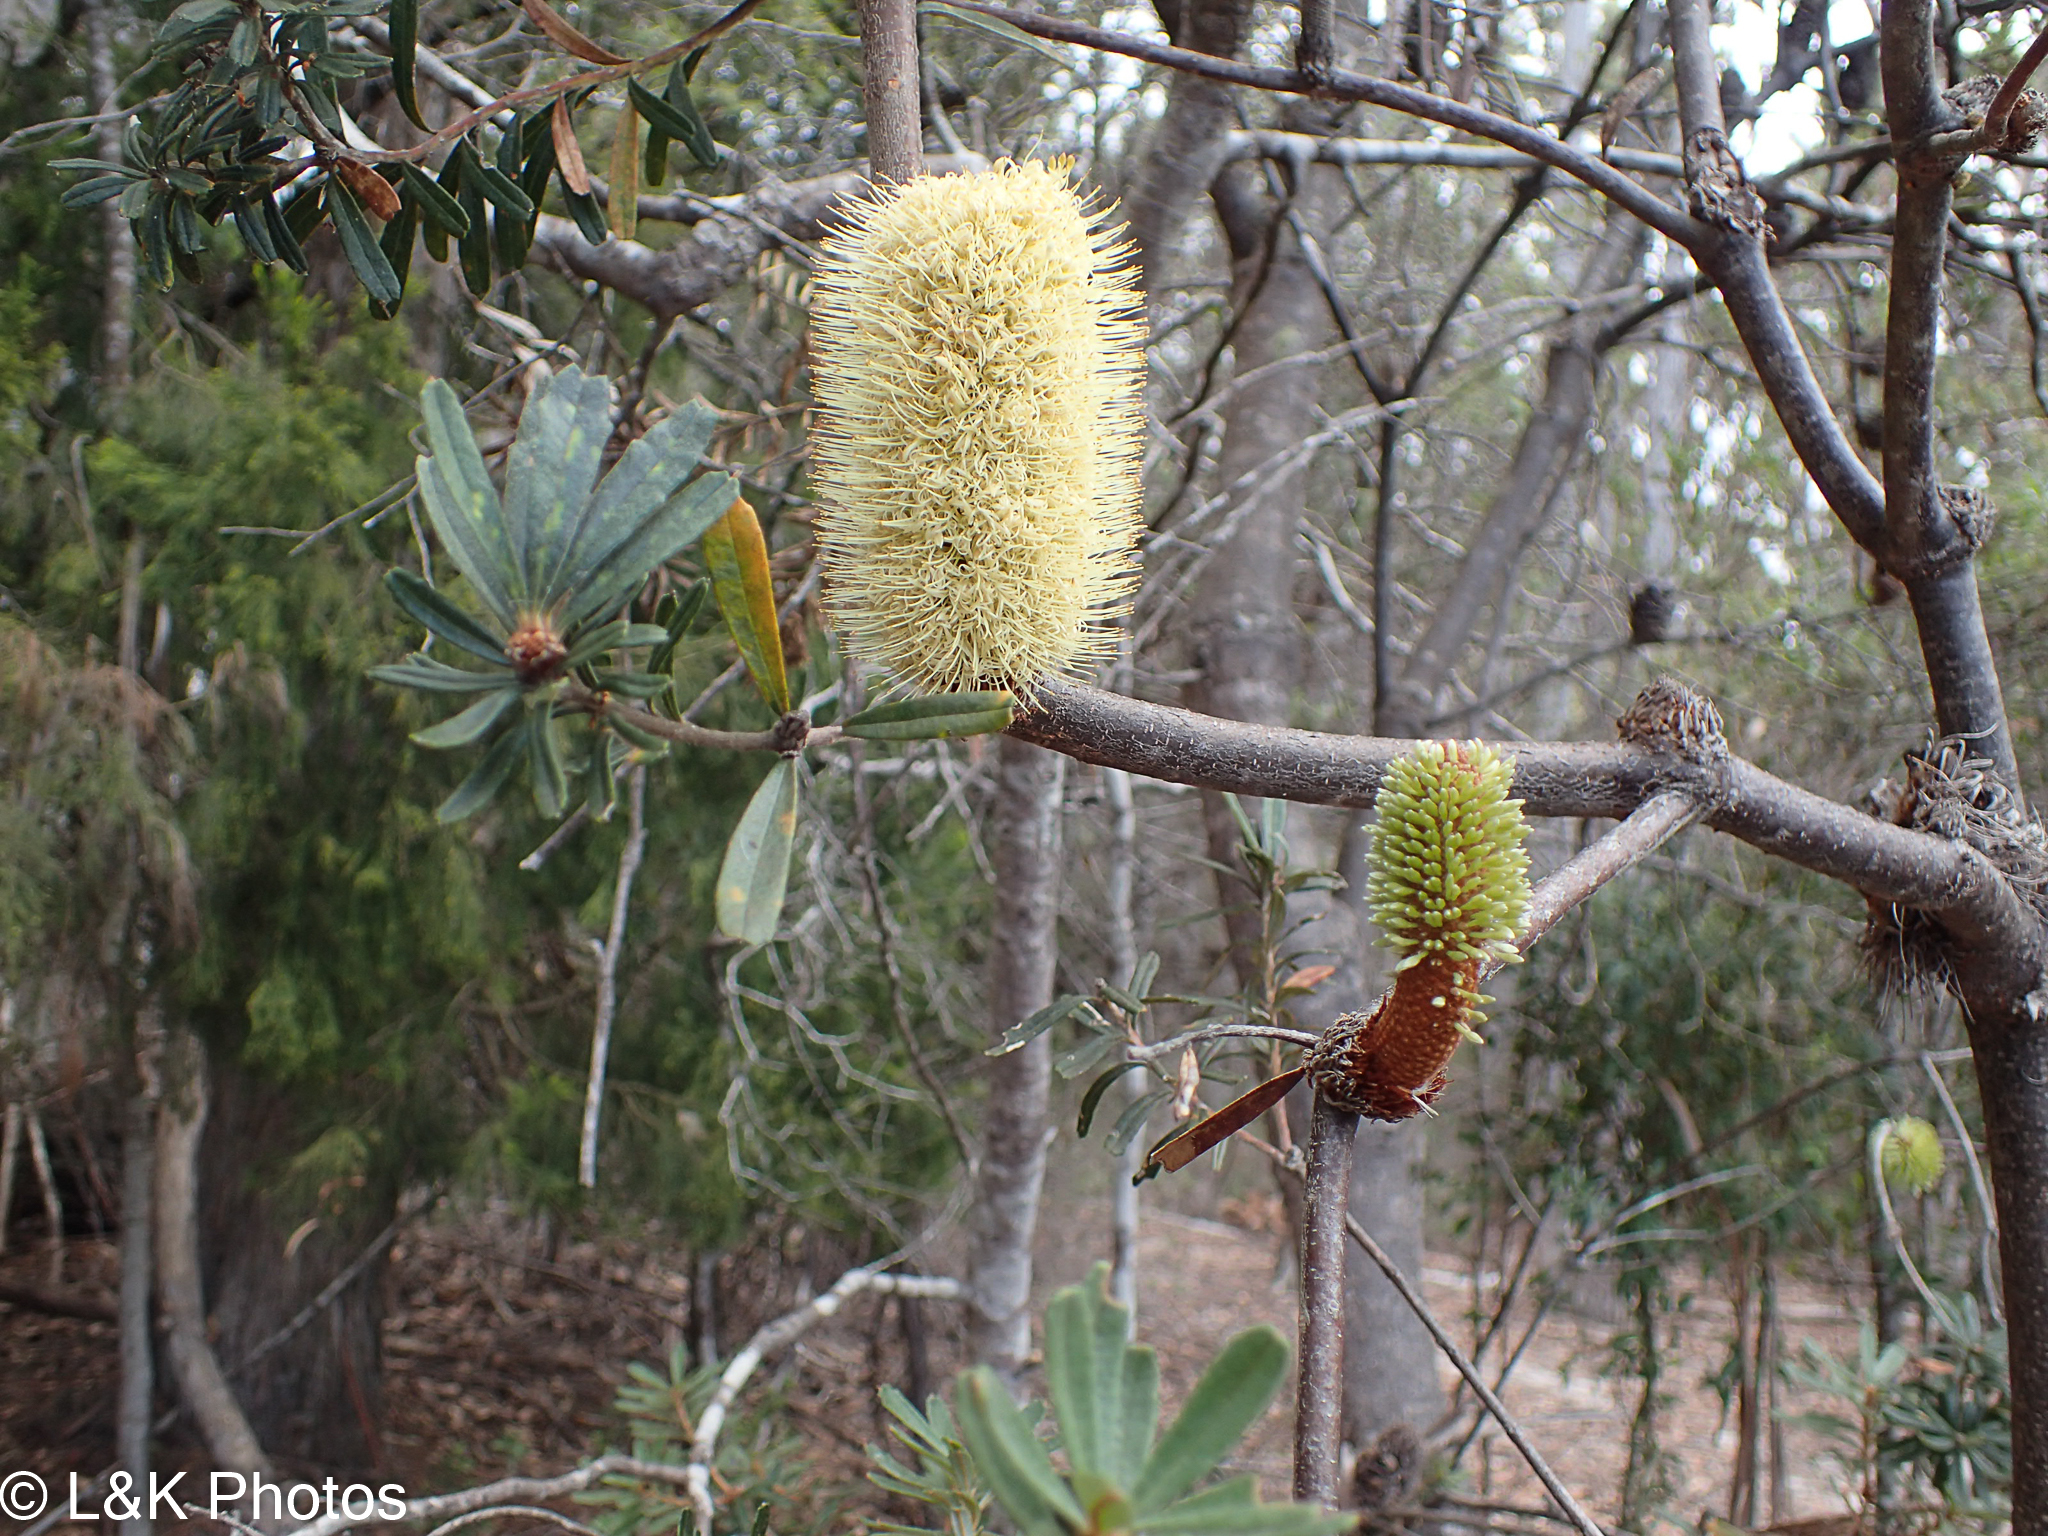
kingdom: Plantae
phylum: Tracheophyta
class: Magnoliopsida
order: Proteales
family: Proteaceae
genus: Banksia
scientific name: Banksia marginata
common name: Silver banksia
